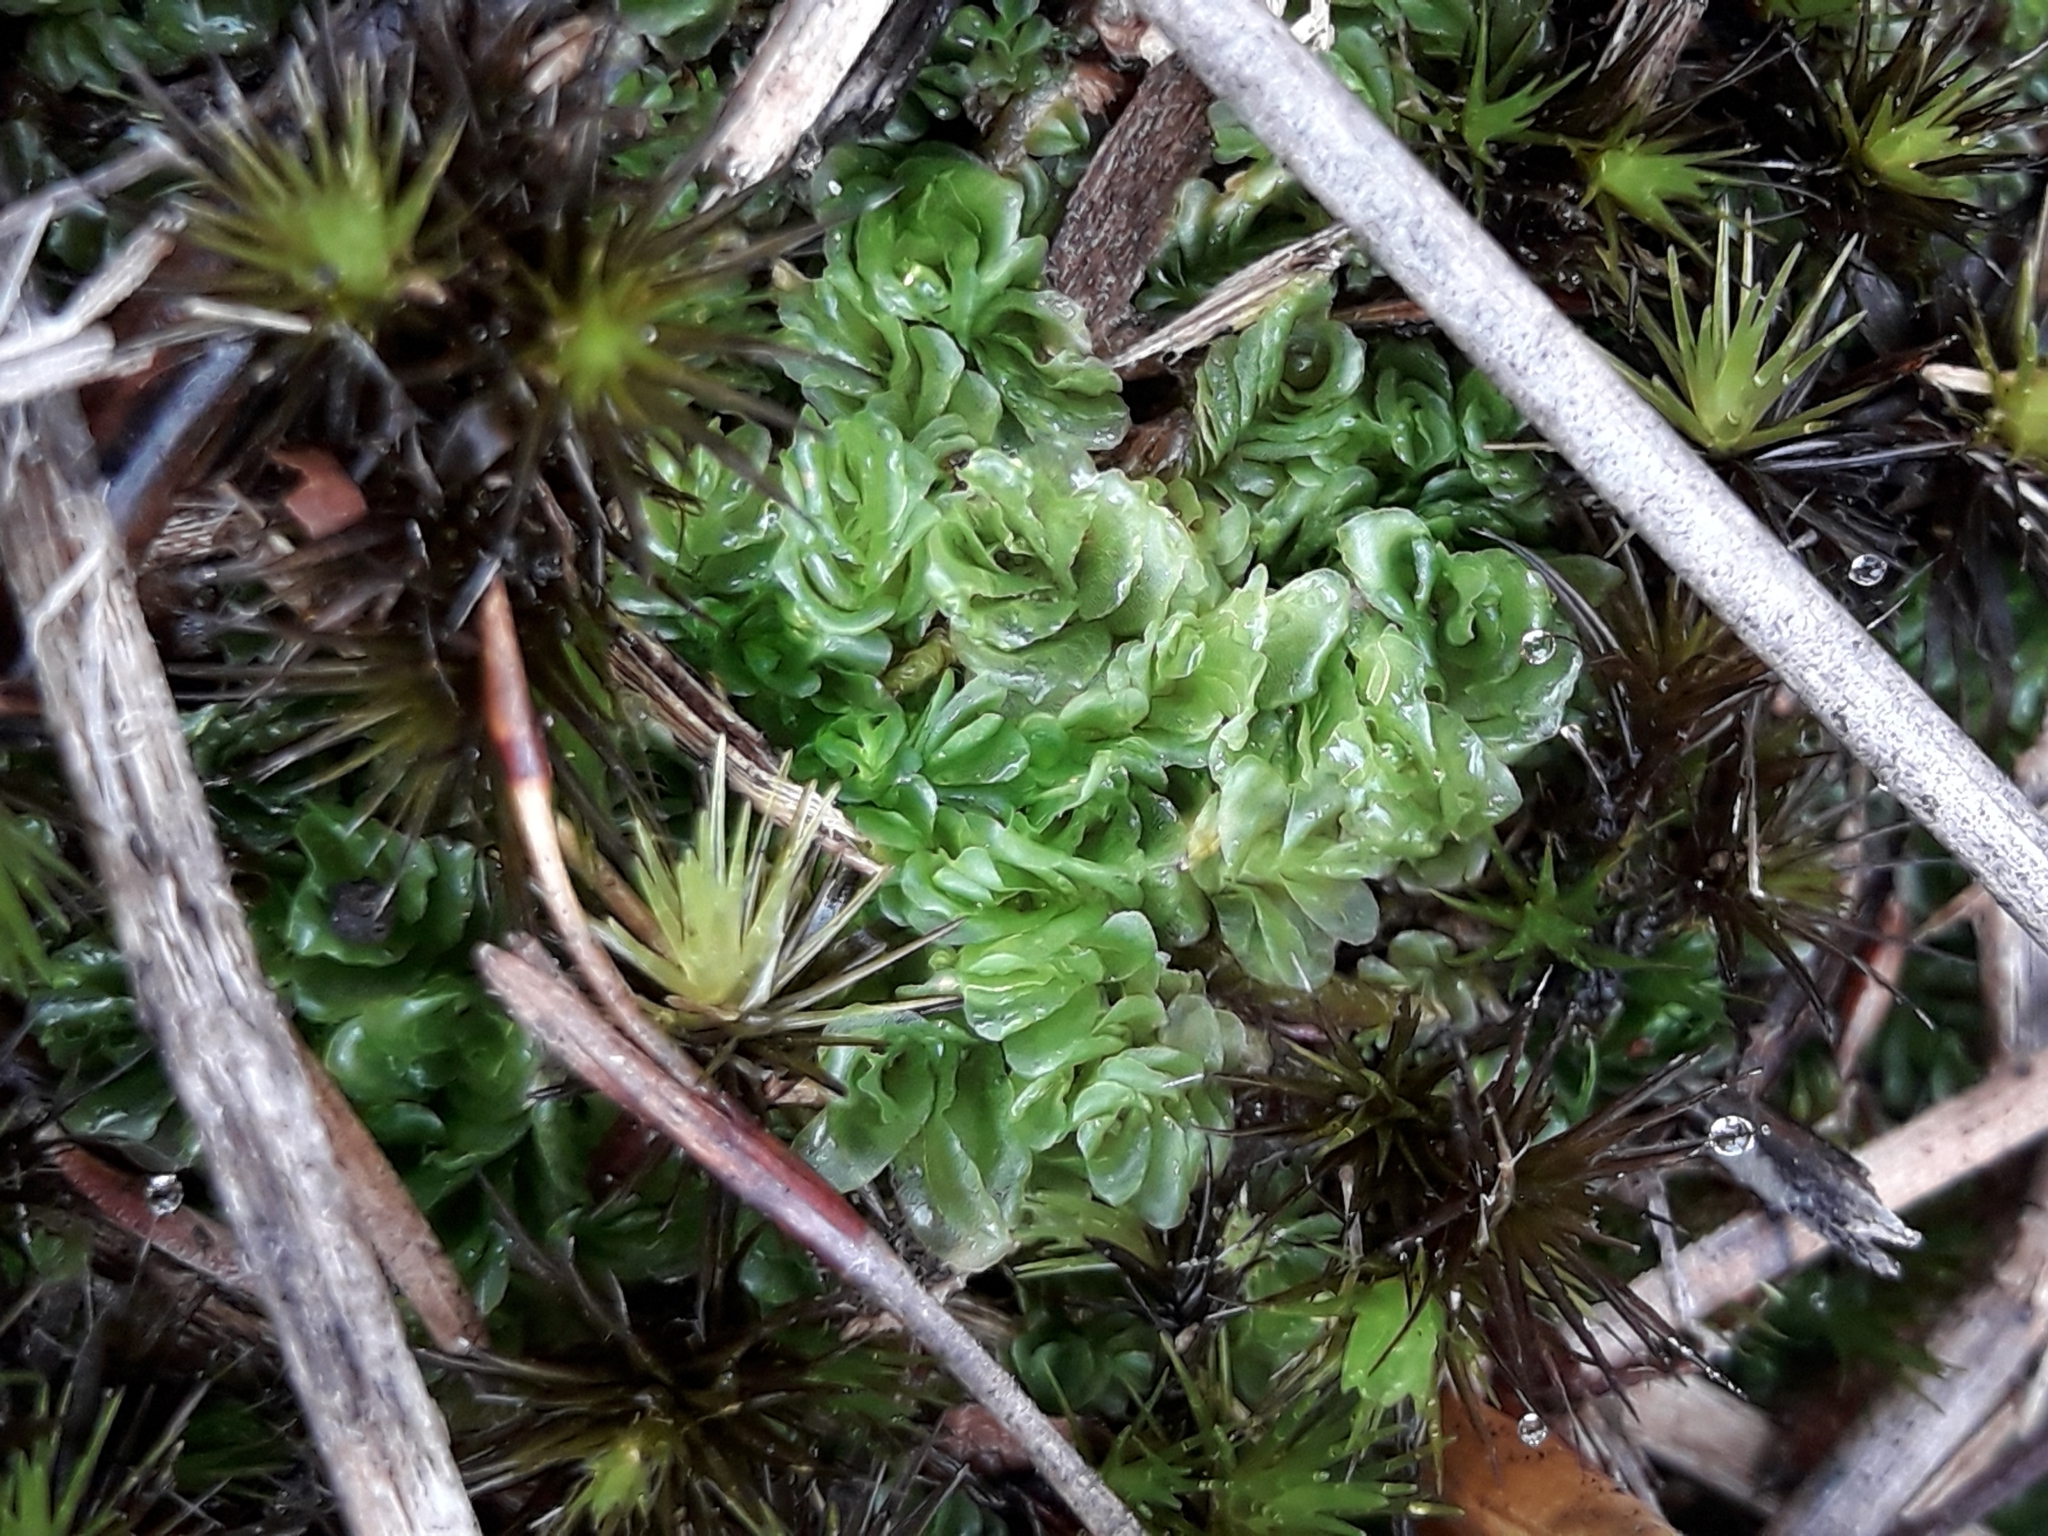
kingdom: Plantae
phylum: Marchantiophyta
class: Jungermanniopsida
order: Jungermanniales
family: Acrobolbaceae
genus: Lethocolea
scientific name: Lethocolea pansa
